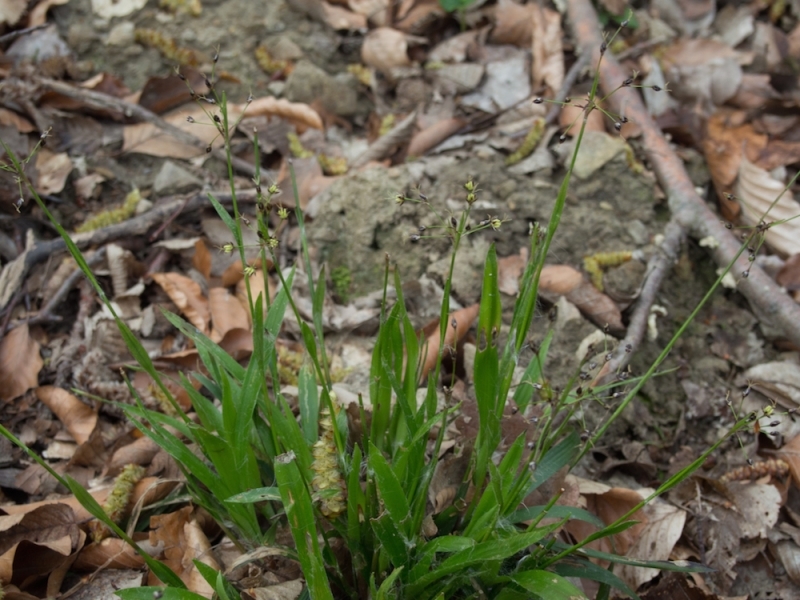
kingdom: Plantae
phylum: Tracheophyta
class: Liliopsida
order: Poales
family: Juncaceae
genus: Luzula
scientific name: Luzula pilosa
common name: Hairy wood-rush
